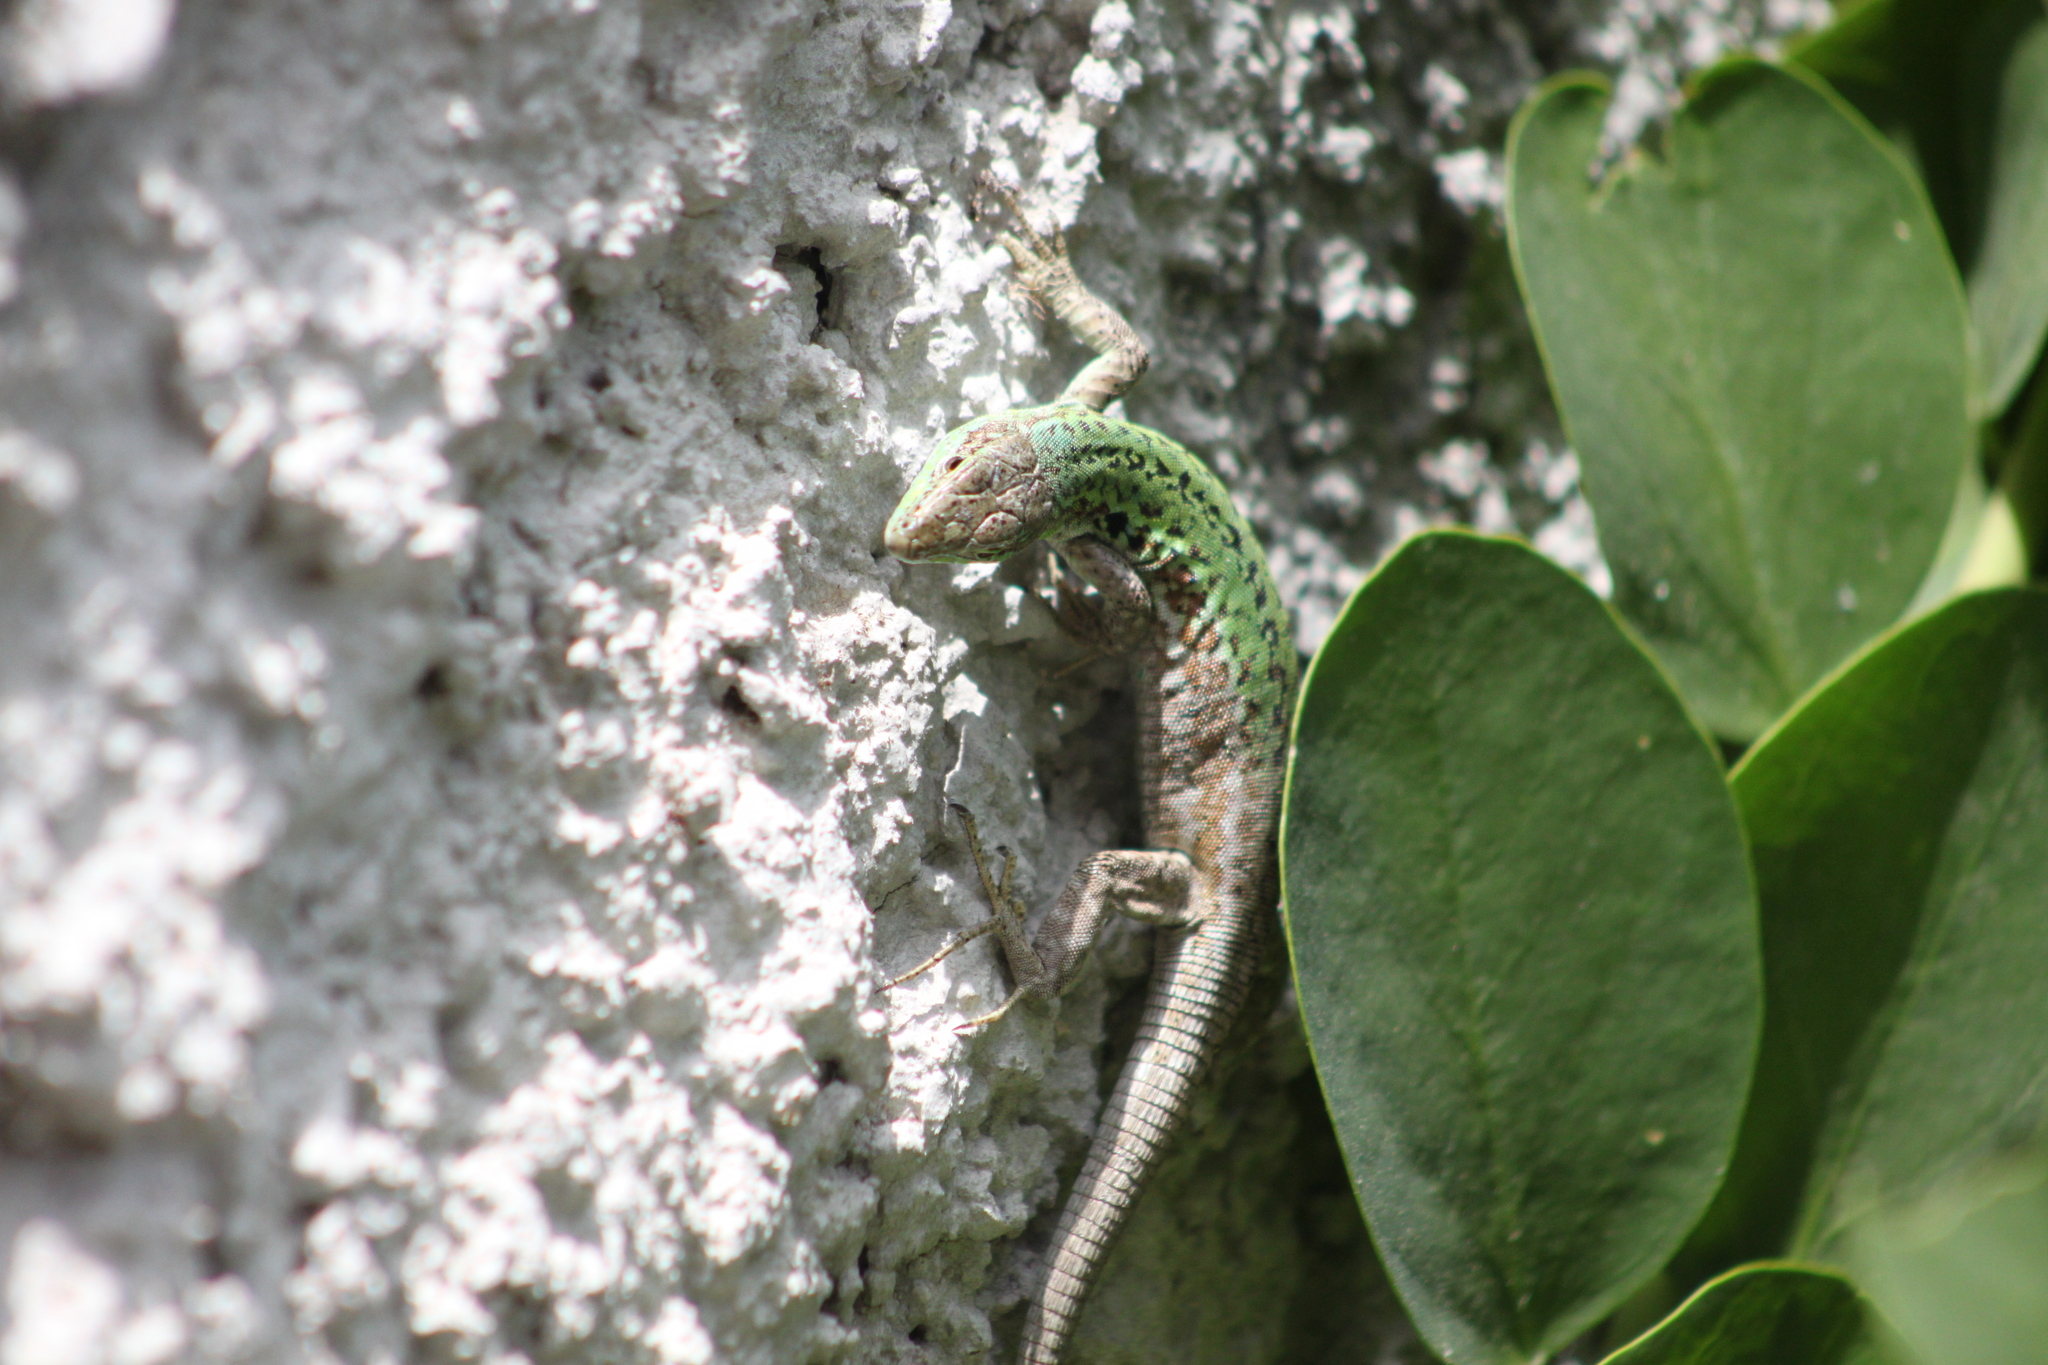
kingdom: Animalia
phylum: Chordata
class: Squamata
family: Lacertidae
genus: Podarcis
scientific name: Podarcis siculus
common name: Italian wall lizard
